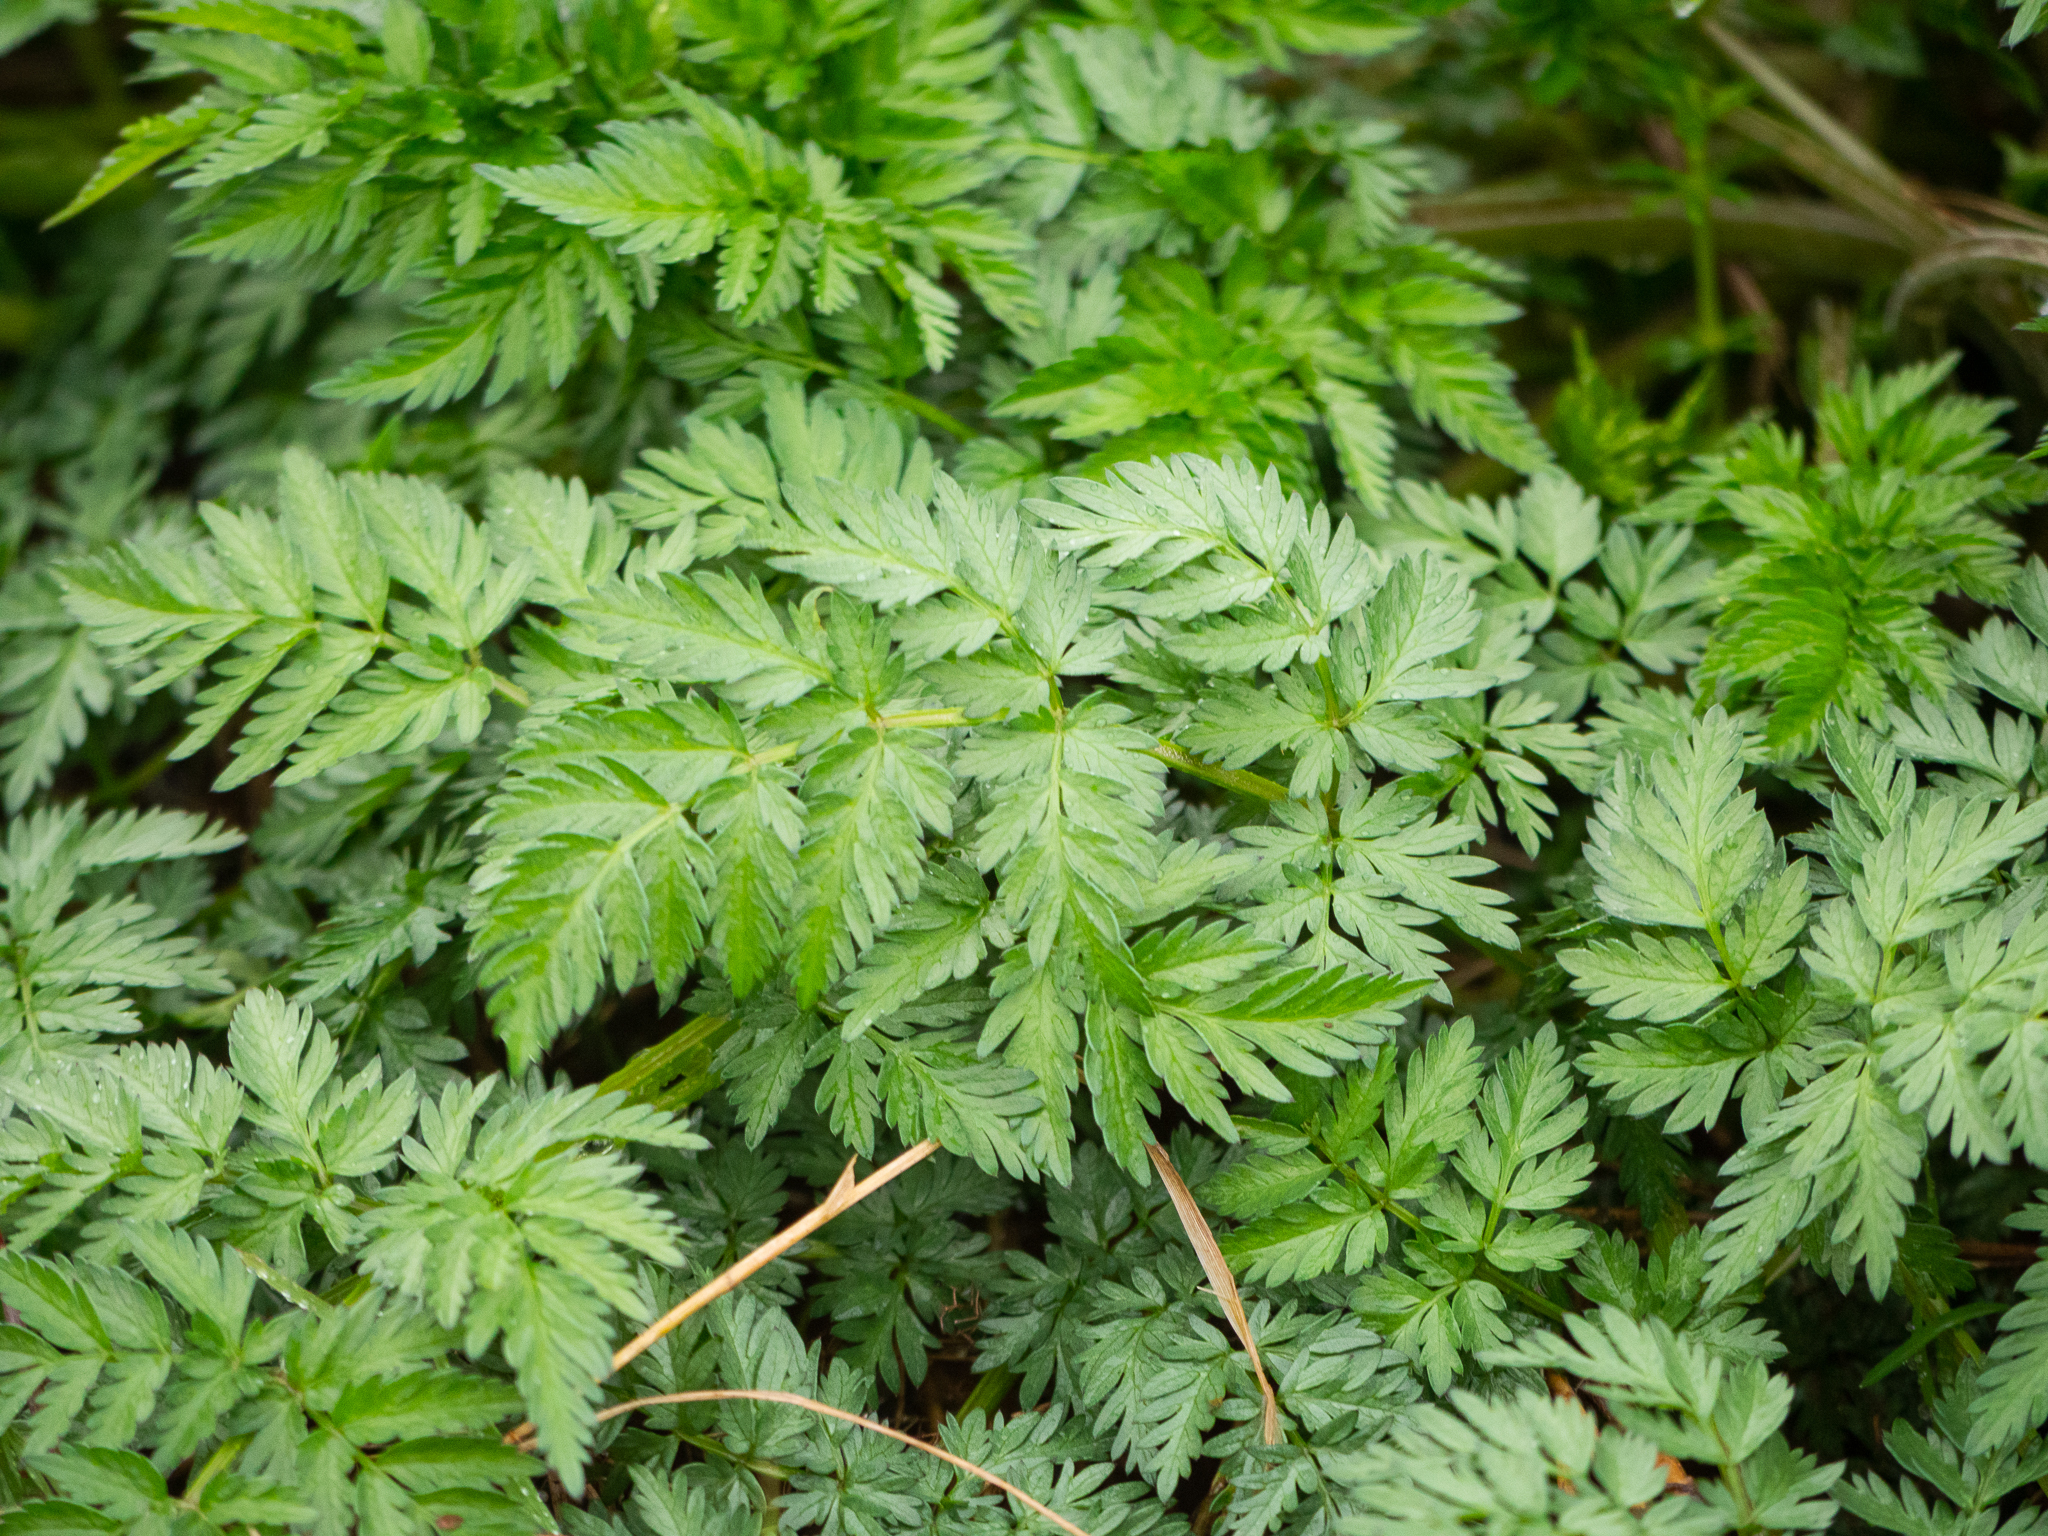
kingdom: Plantae
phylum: Tracheophyta
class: Magnoliopsida
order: Apiales
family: Apiaceae
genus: Anthriscus
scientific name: Anthriscus sylvestris
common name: Cow parsley
